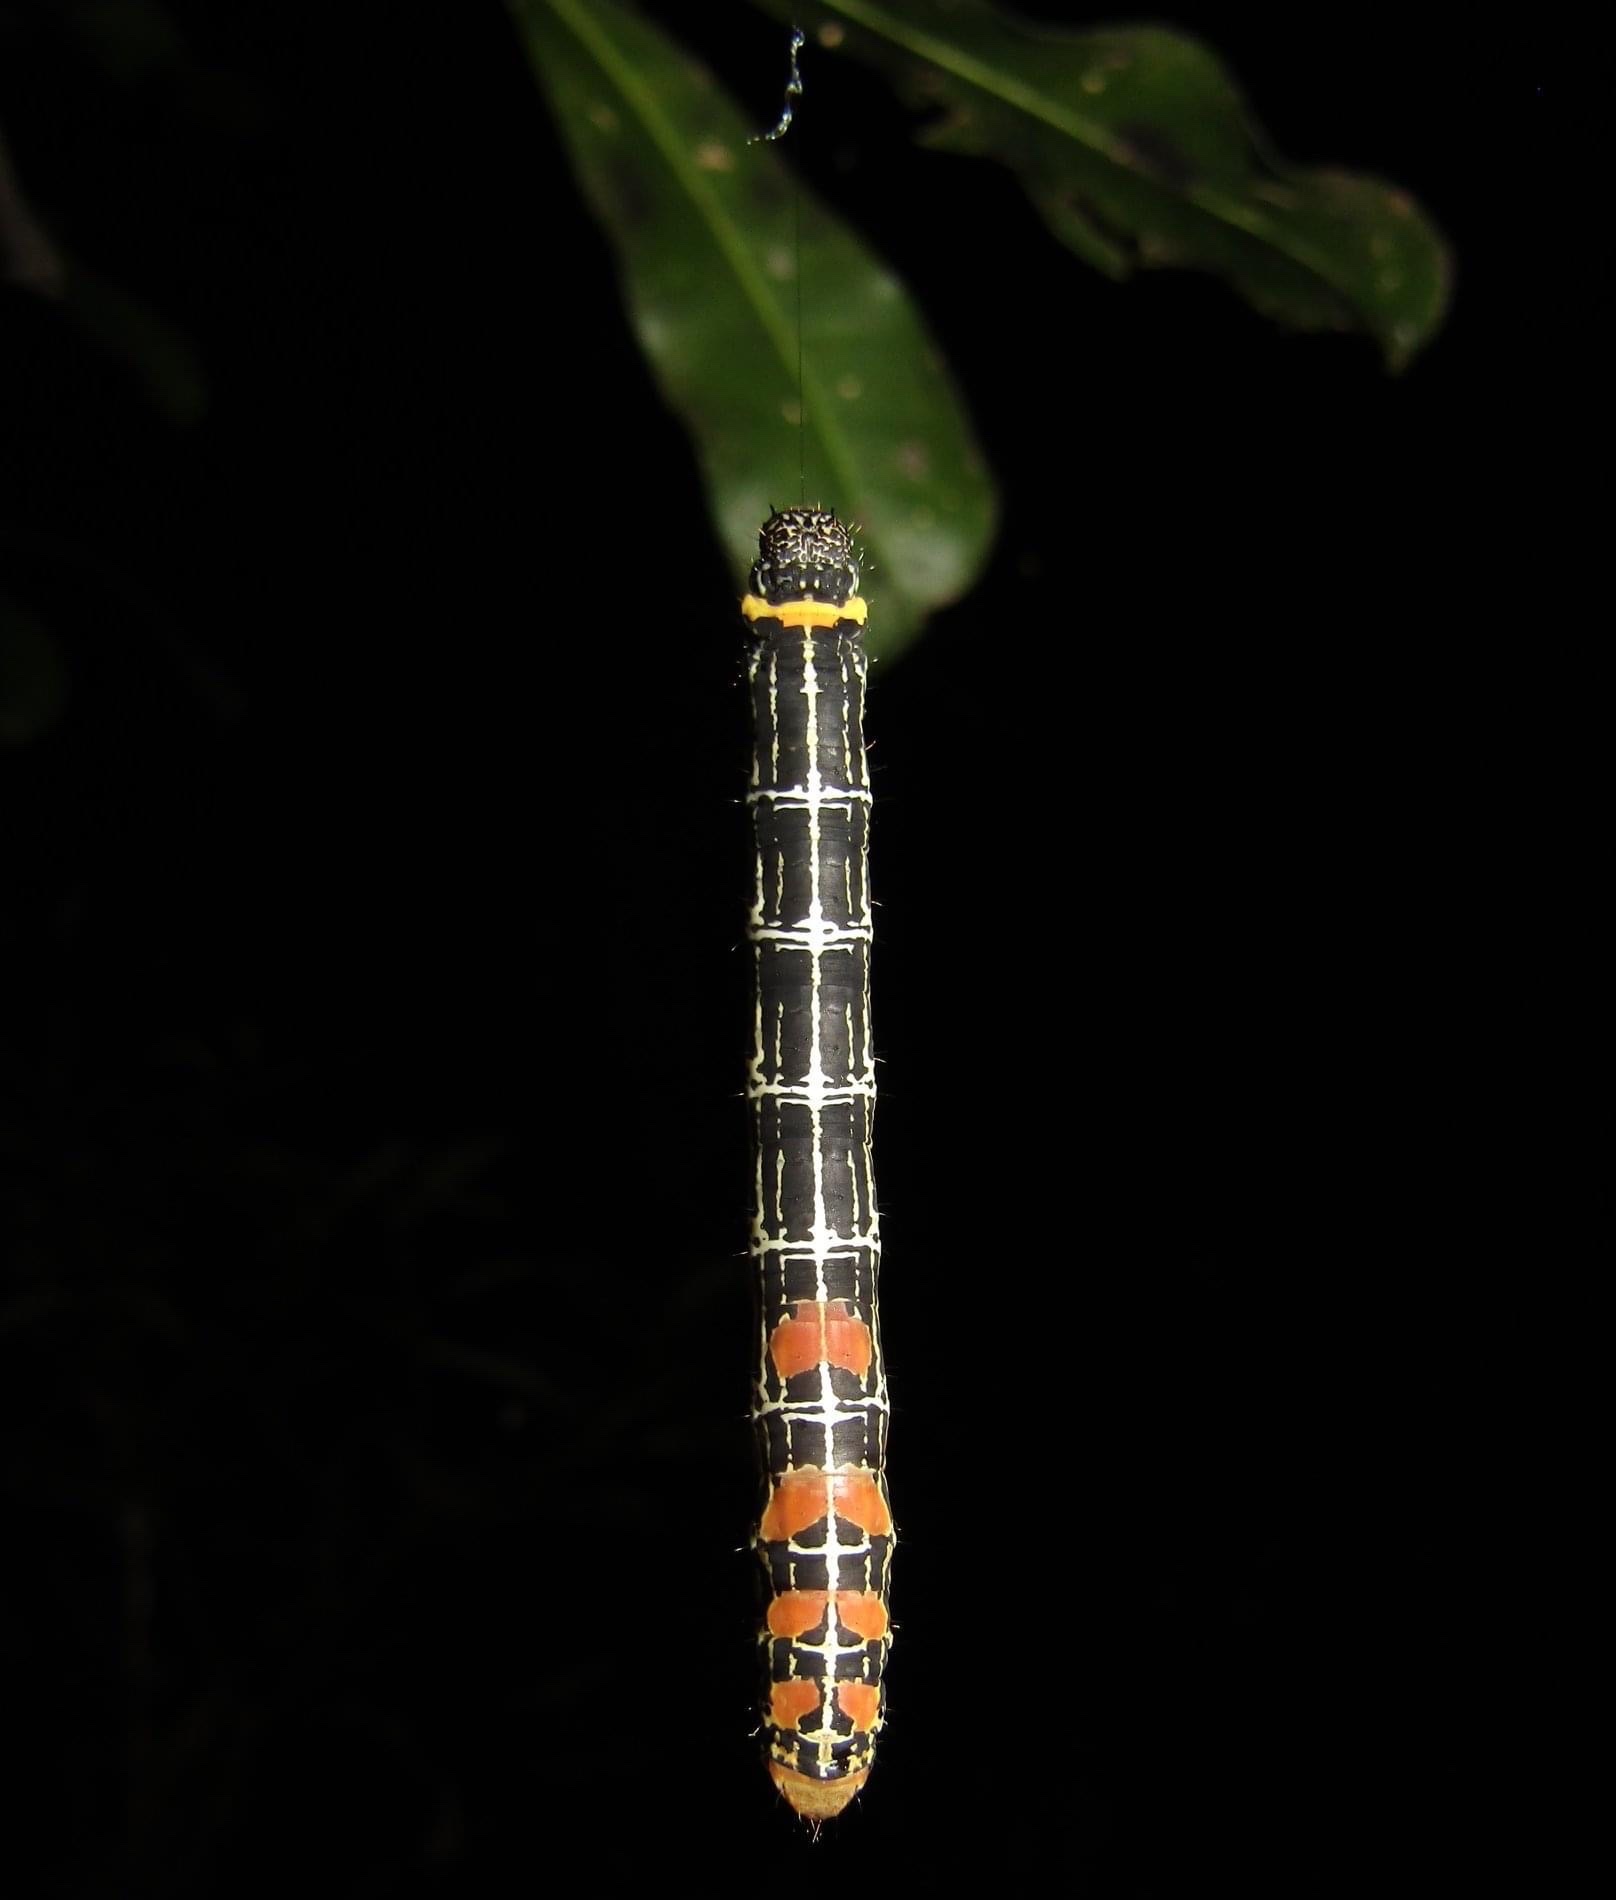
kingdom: Animalia
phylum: Arthropoda
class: Insecta
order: Lepidoptera
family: Geometridae
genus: Bracca
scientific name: Bracca matutinata
